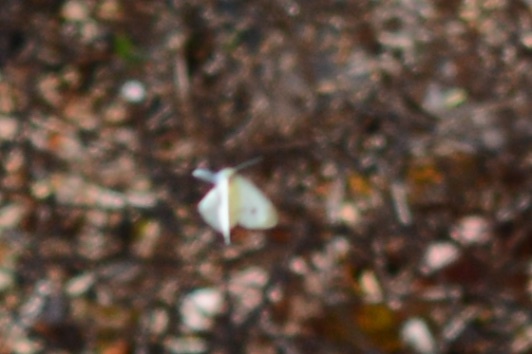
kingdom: Animalia
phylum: Arthropoda
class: Insecta
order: Lepidoptera
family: Pieridae
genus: Pieris
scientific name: Pieris rapae
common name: Small white
